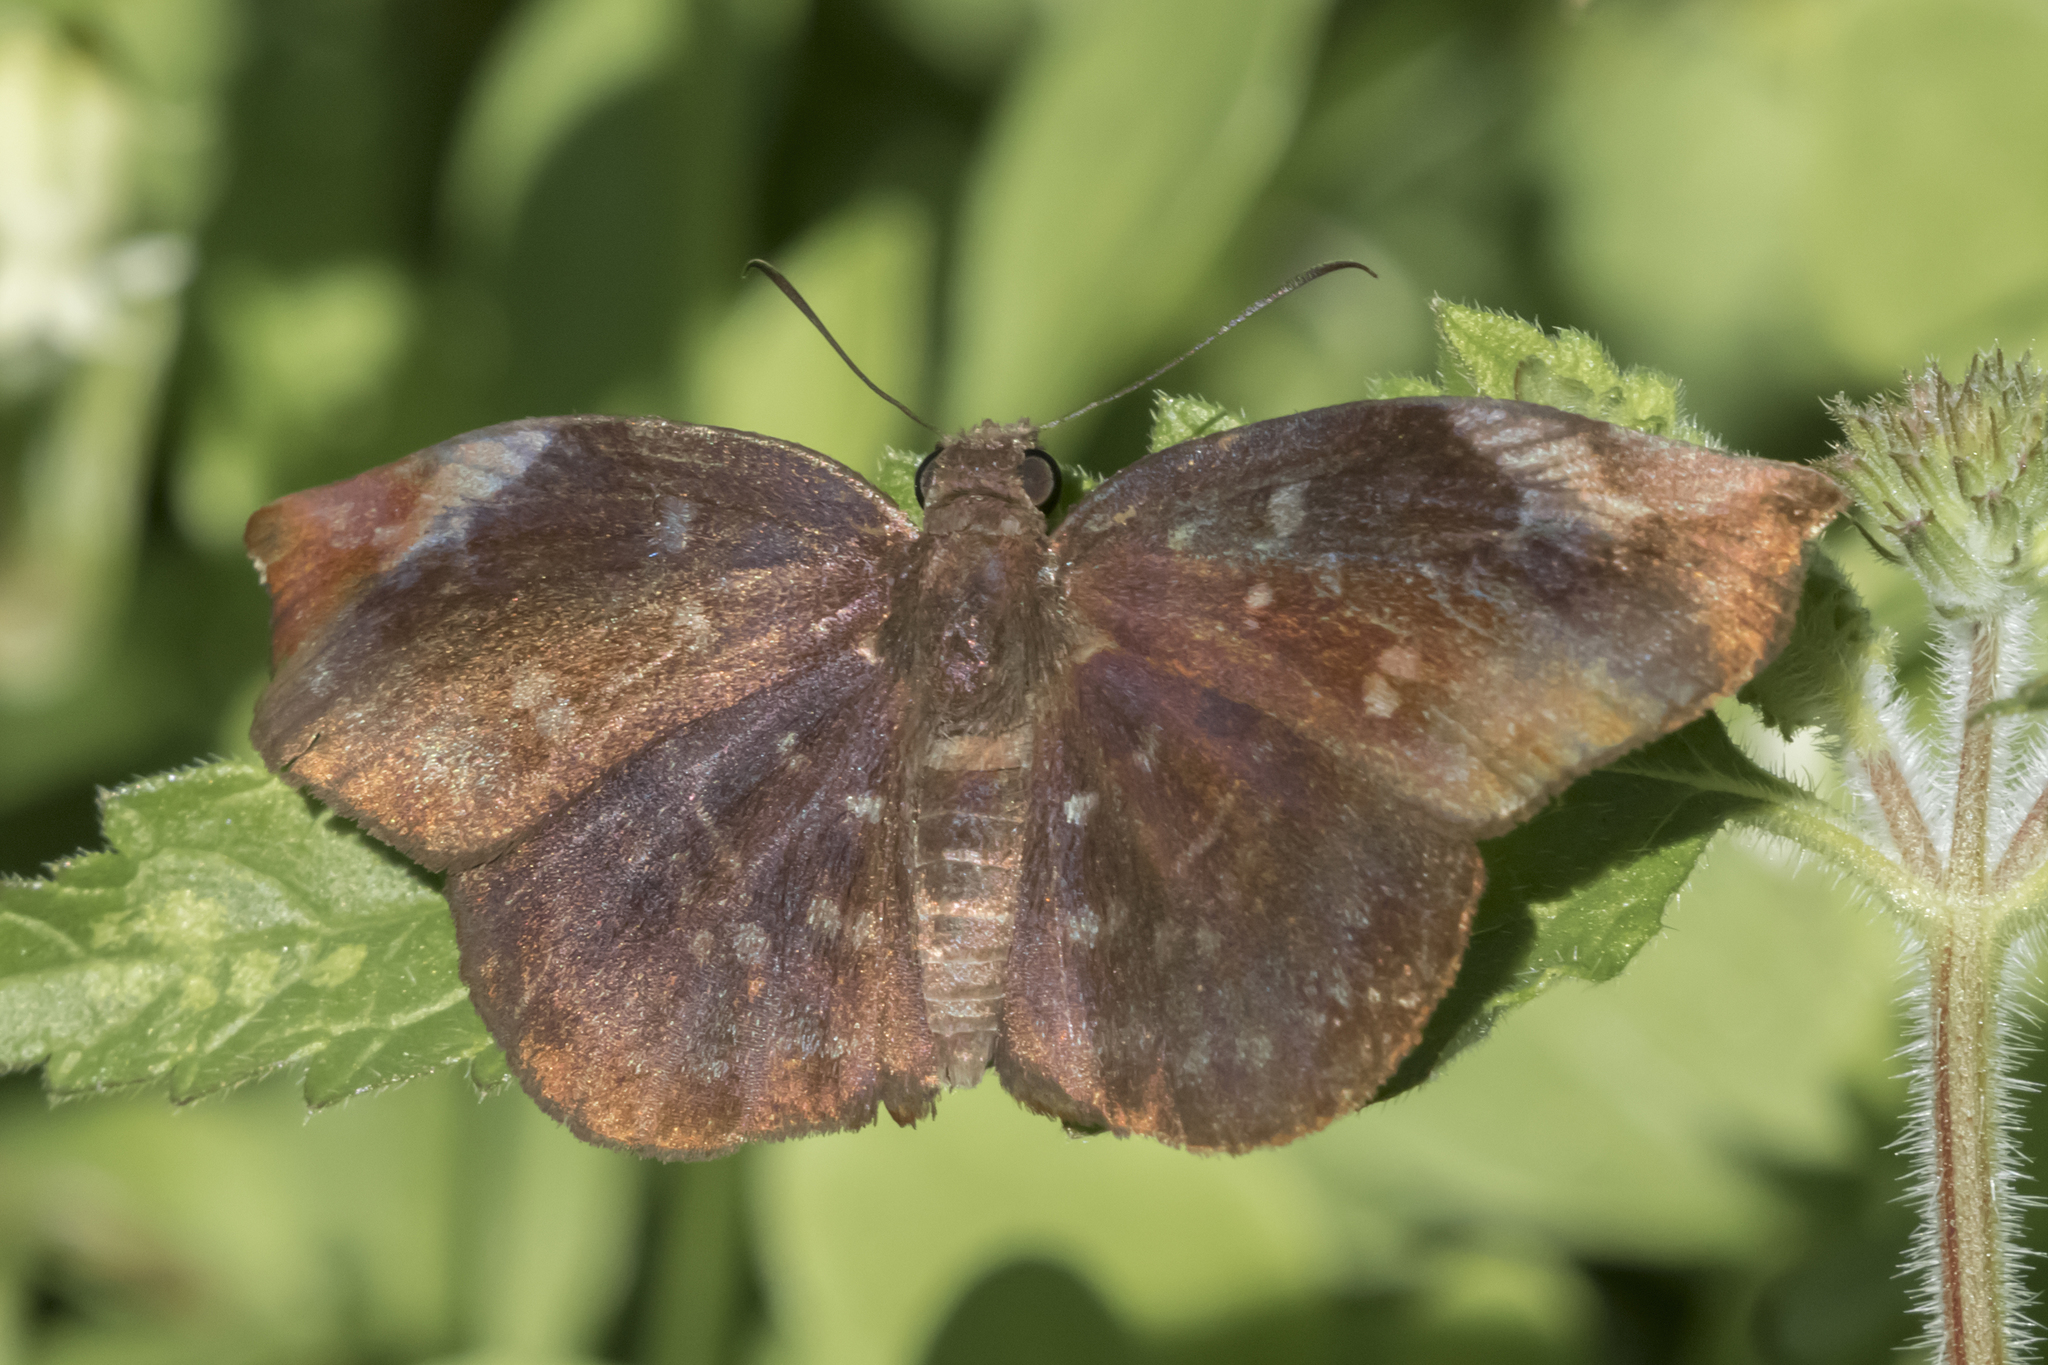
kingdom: Animalia
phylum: Arthropoda
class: Insecta
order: Lepidoptera
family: Hesperiidae
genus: Achlyodes
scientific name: Achlyodes thraso
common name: Sickle-winged skipper
